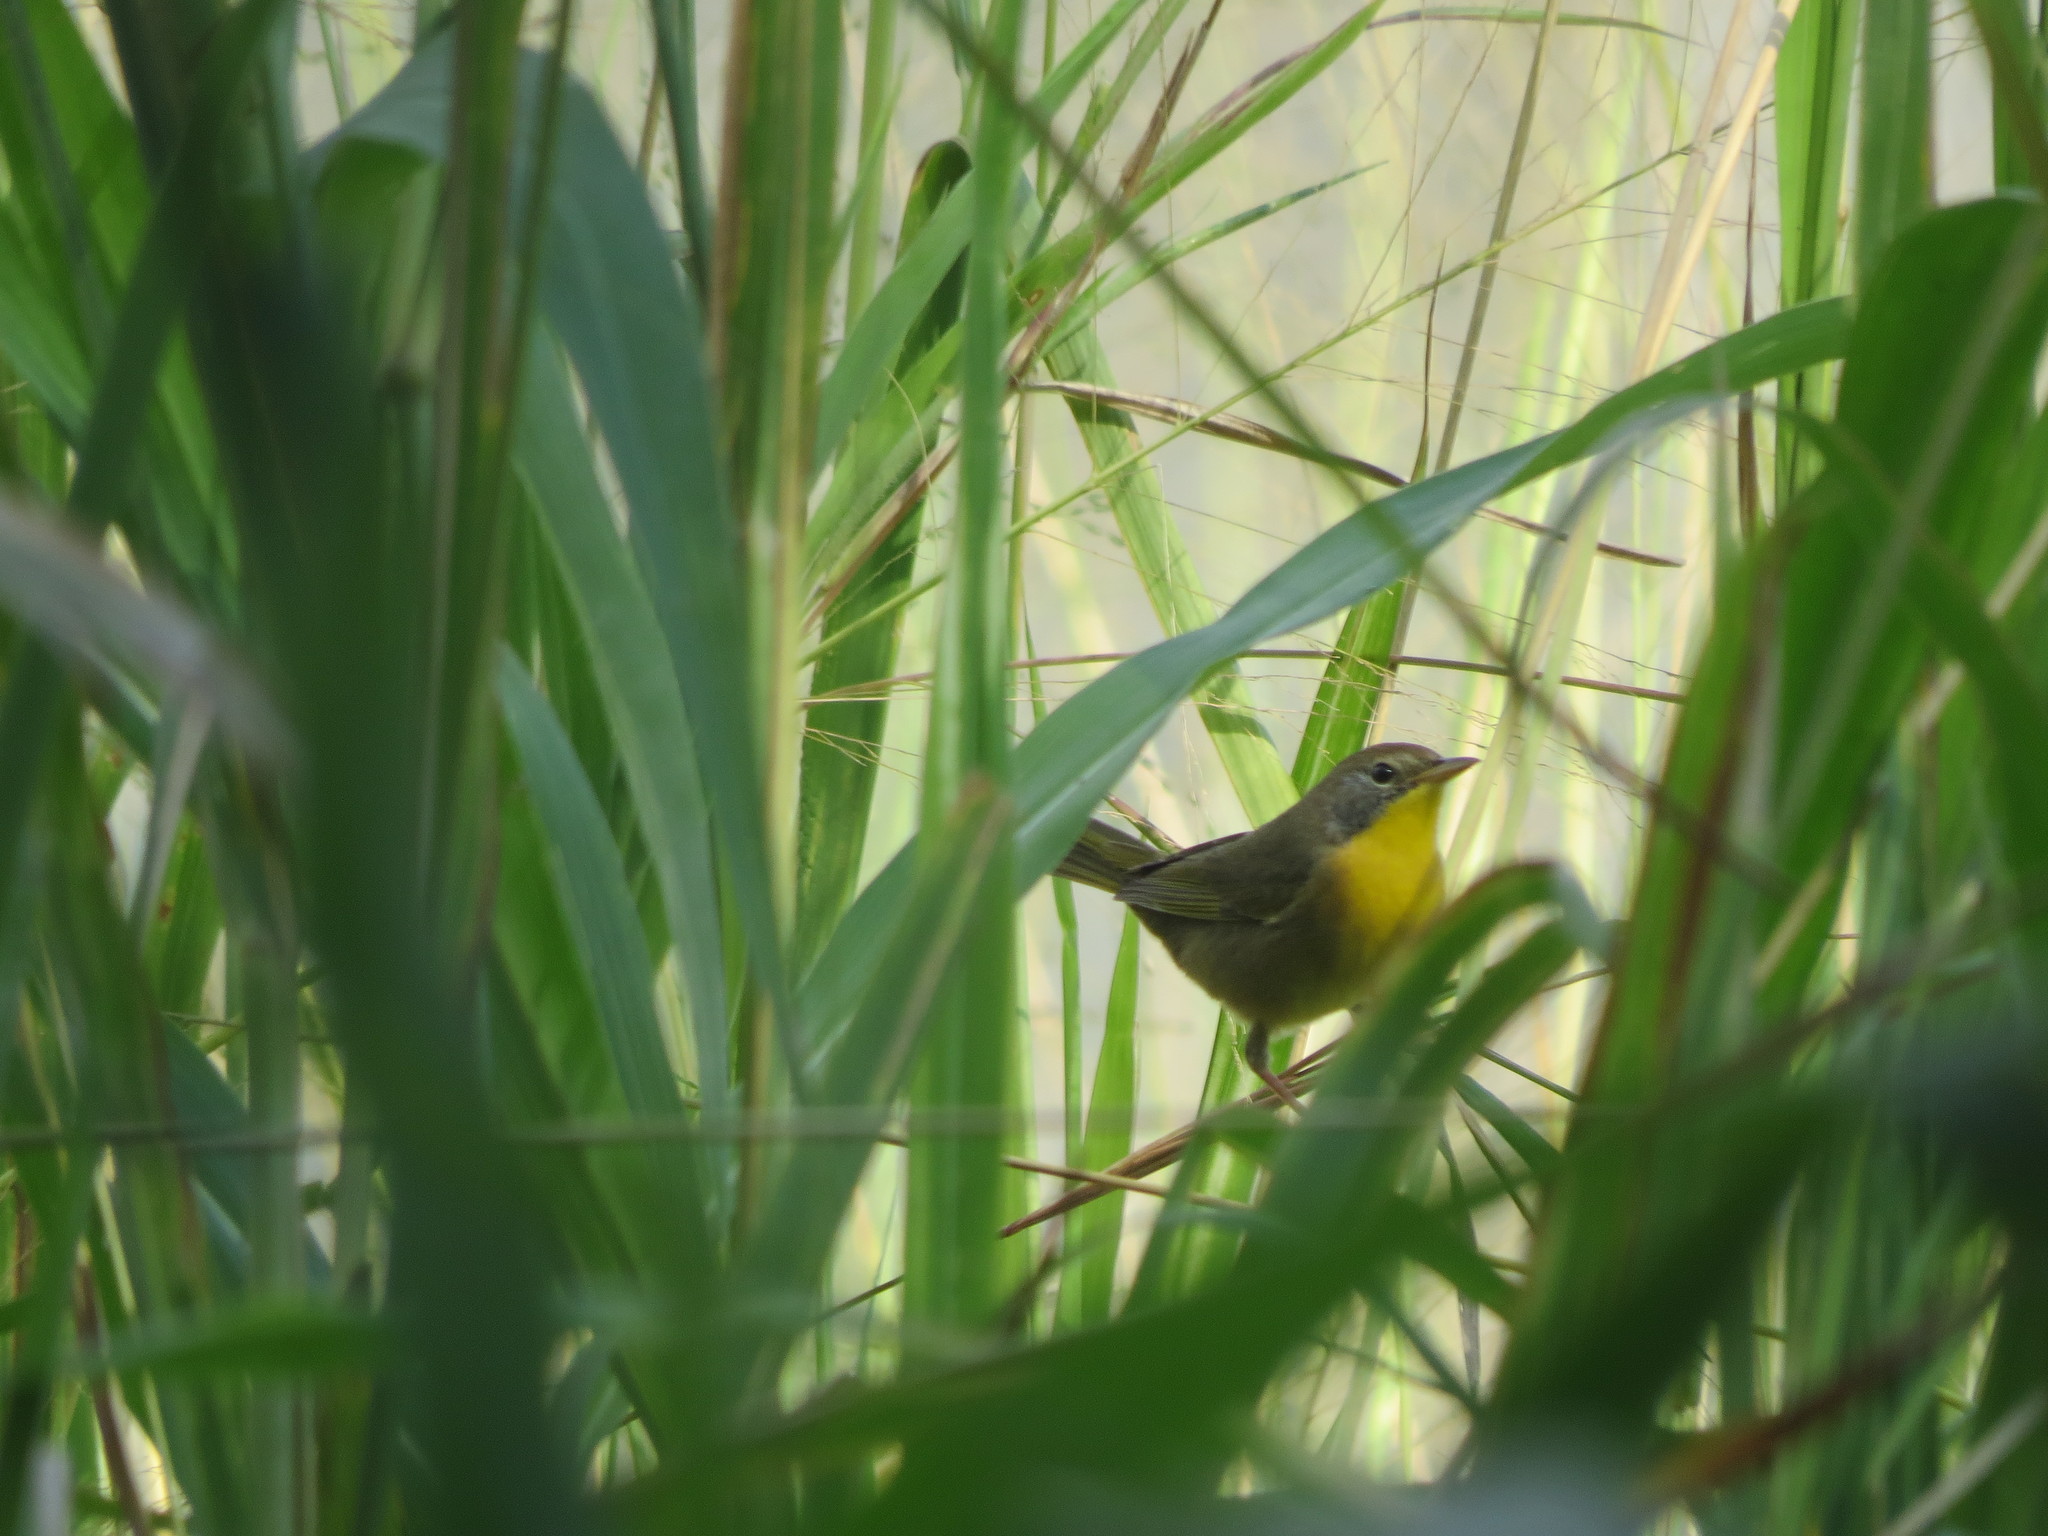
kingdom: Animalia
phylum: Chordata
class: Aves
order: Passeriformes
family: Parulidae
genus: Geothlypis
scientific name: Geothlypis trichas
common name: Common yellowthroat
